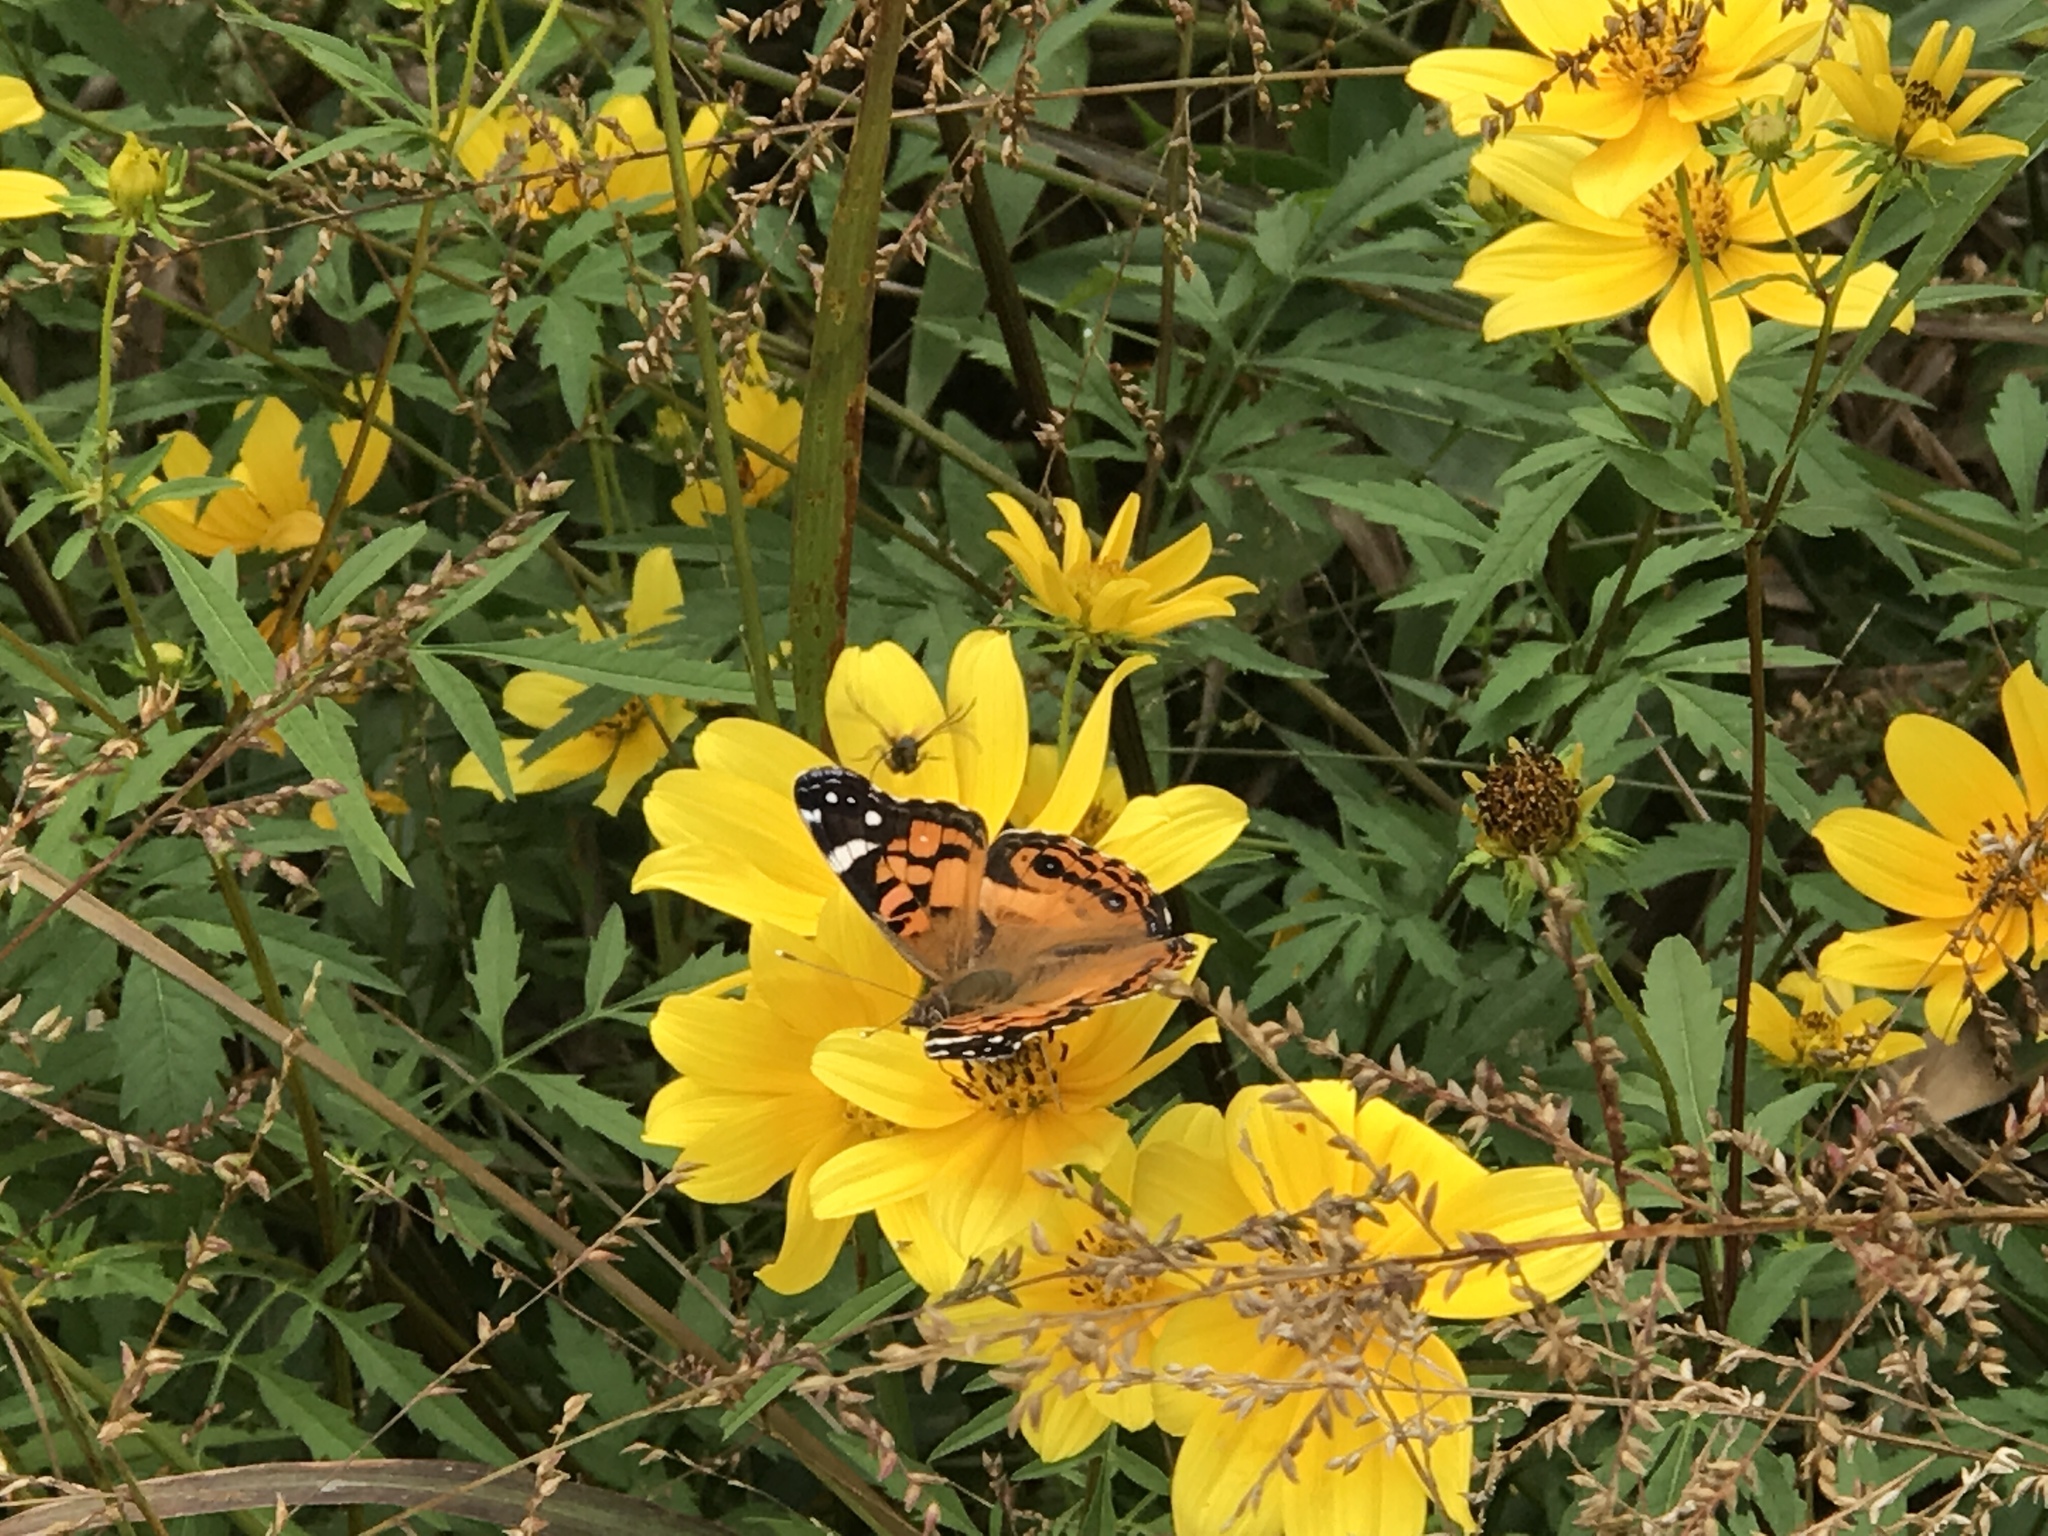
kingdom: Animalia
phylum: Arthropoda
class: Insecta
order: Lepidoptera
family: Nymphalidae
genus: Vanessa
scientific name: Vanessa virginiensis
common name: American lady
